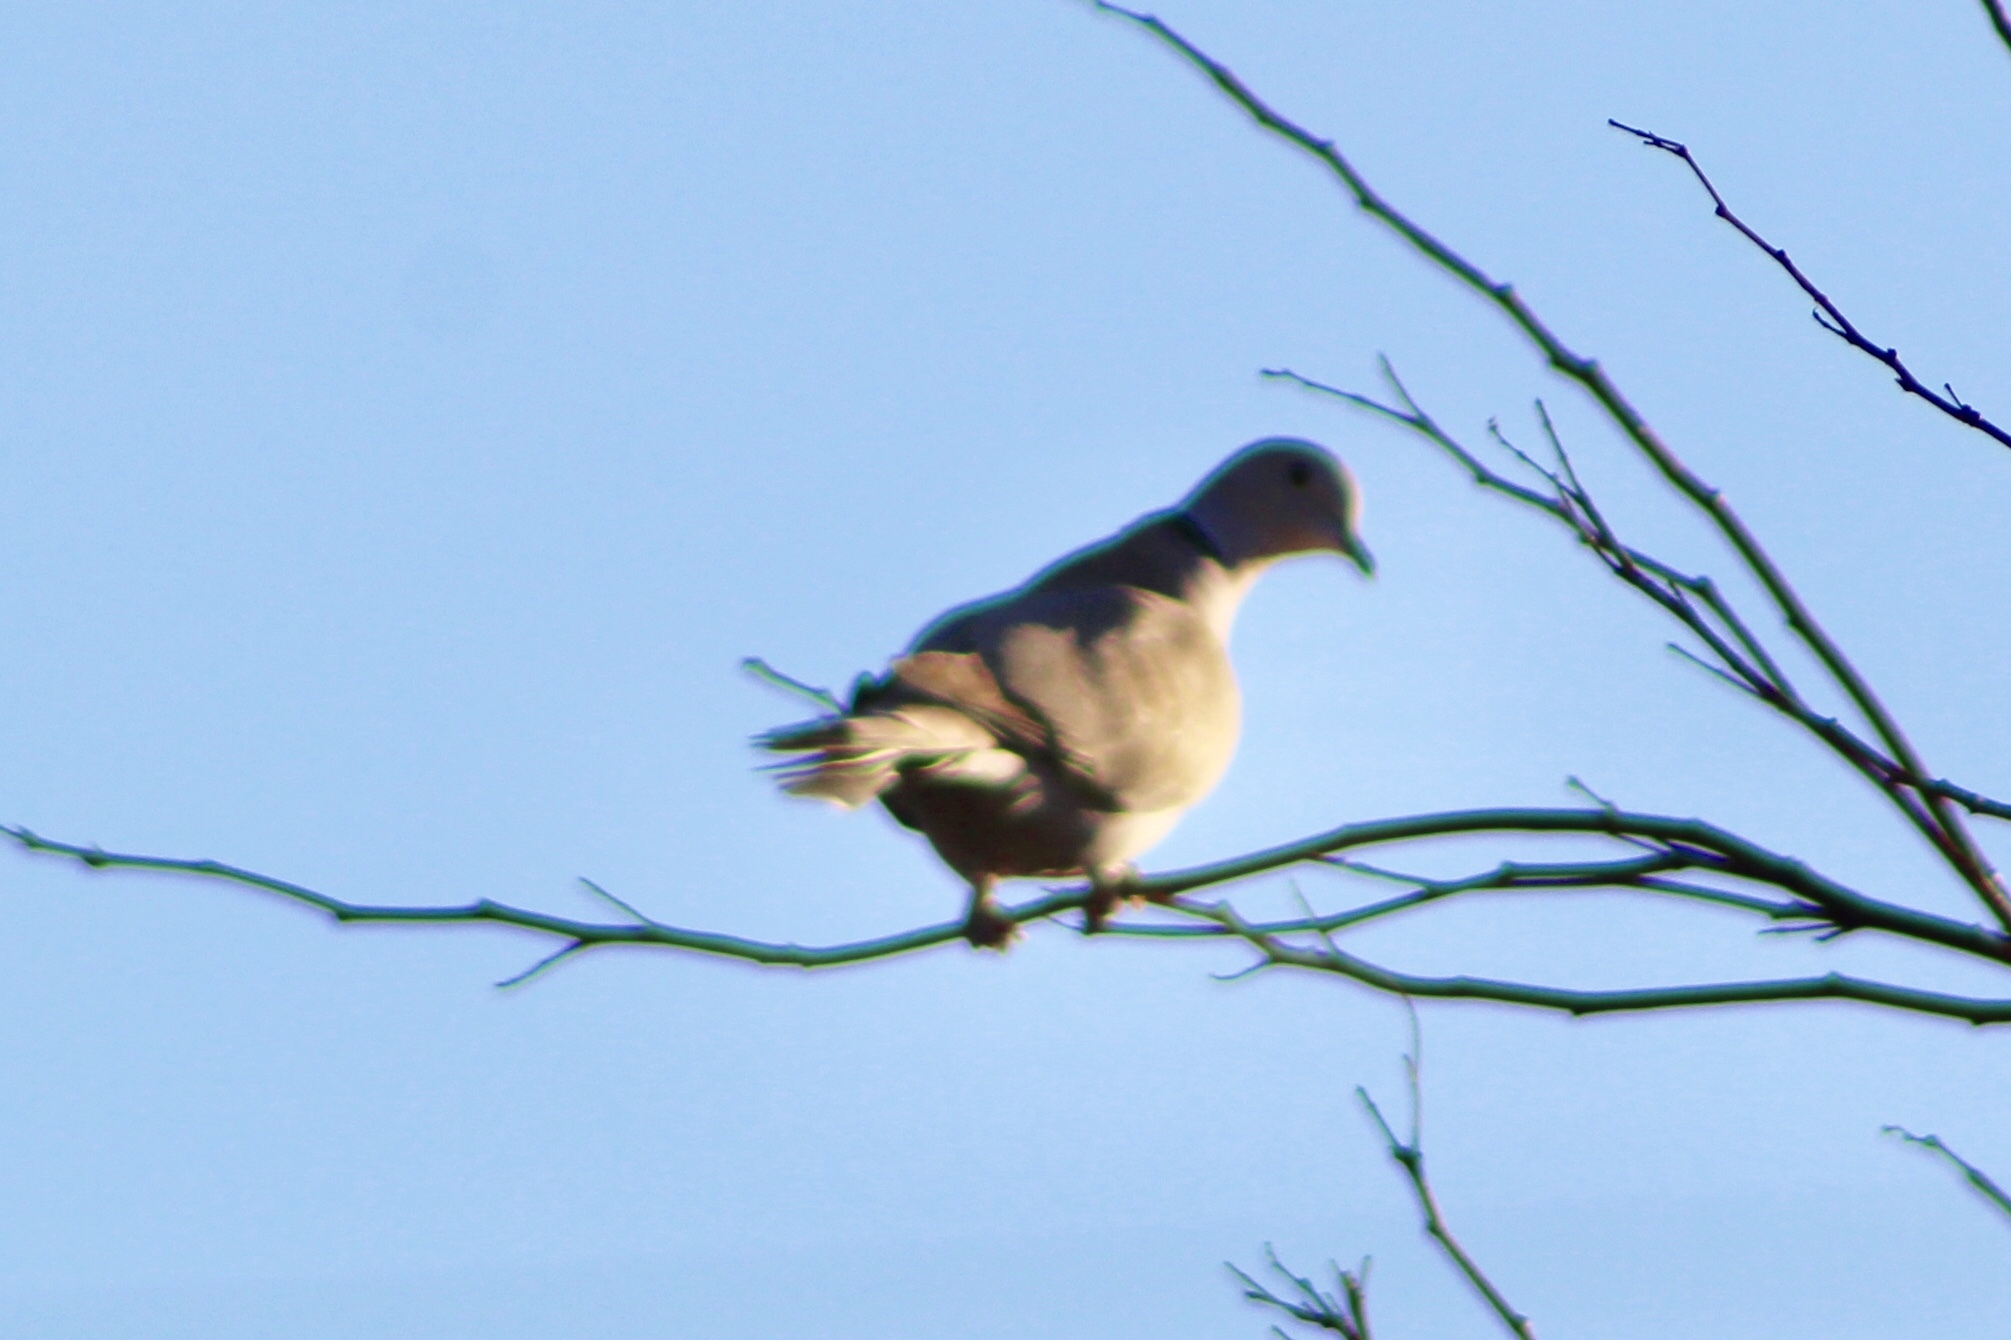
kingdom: Animalia
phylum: Chordata
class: Aves
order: Columbiformes
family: Columbidae
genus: Streptopelia
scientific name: Streptopelia decaocto
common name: Eurasian collared dove
